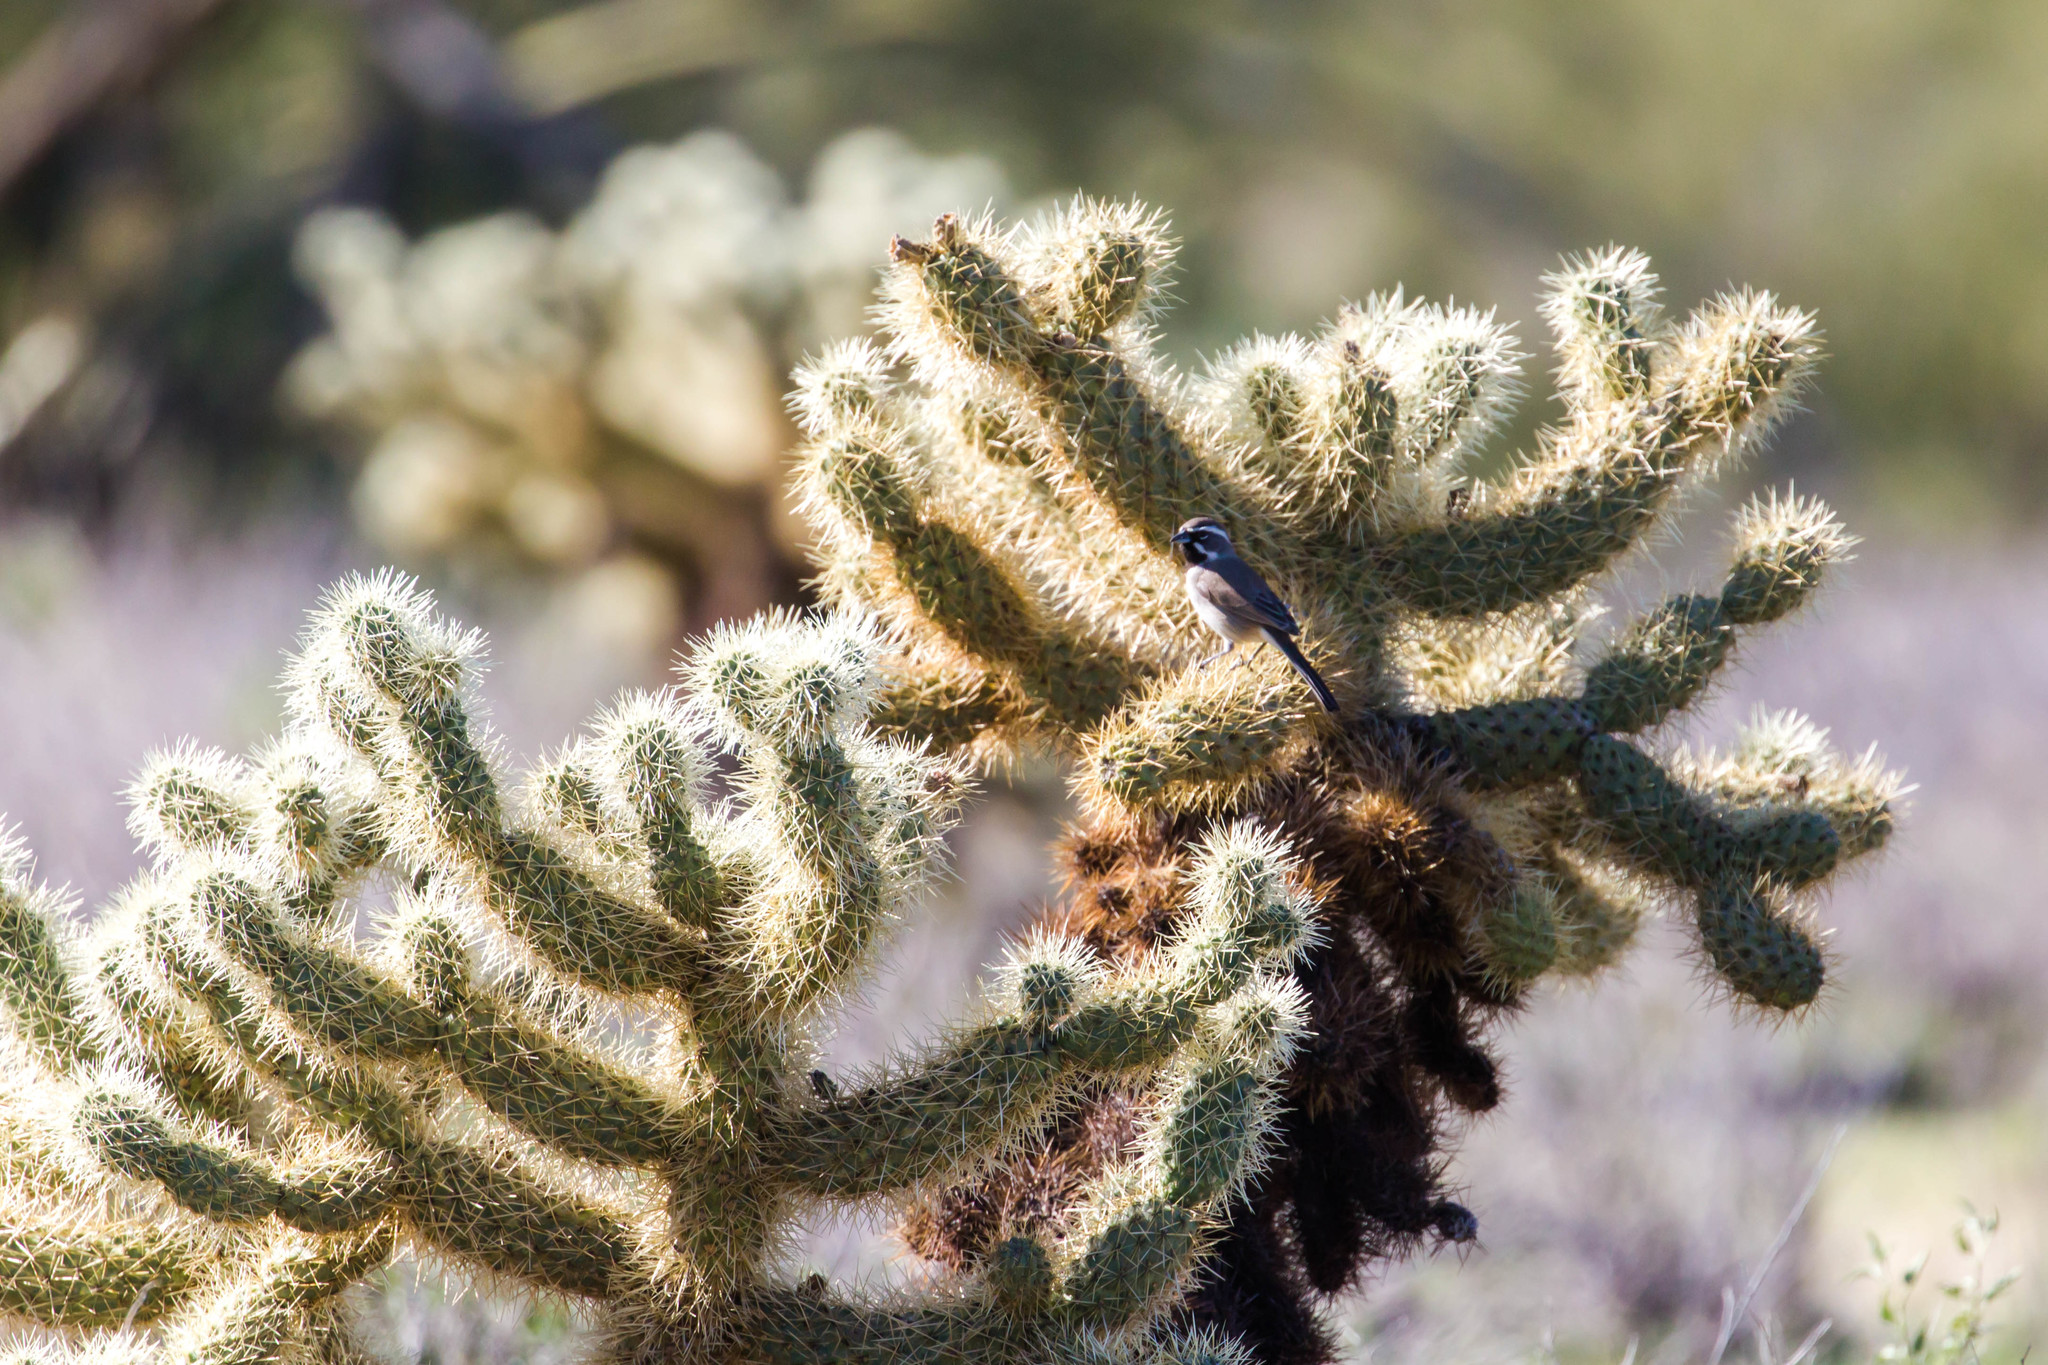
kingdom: Animalia
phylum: Chordata
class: Aves
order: Passeriformes
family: Passerellidae
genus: Amphispiza
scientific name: Amphispiza bilineata
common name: Black-throated sparrow
